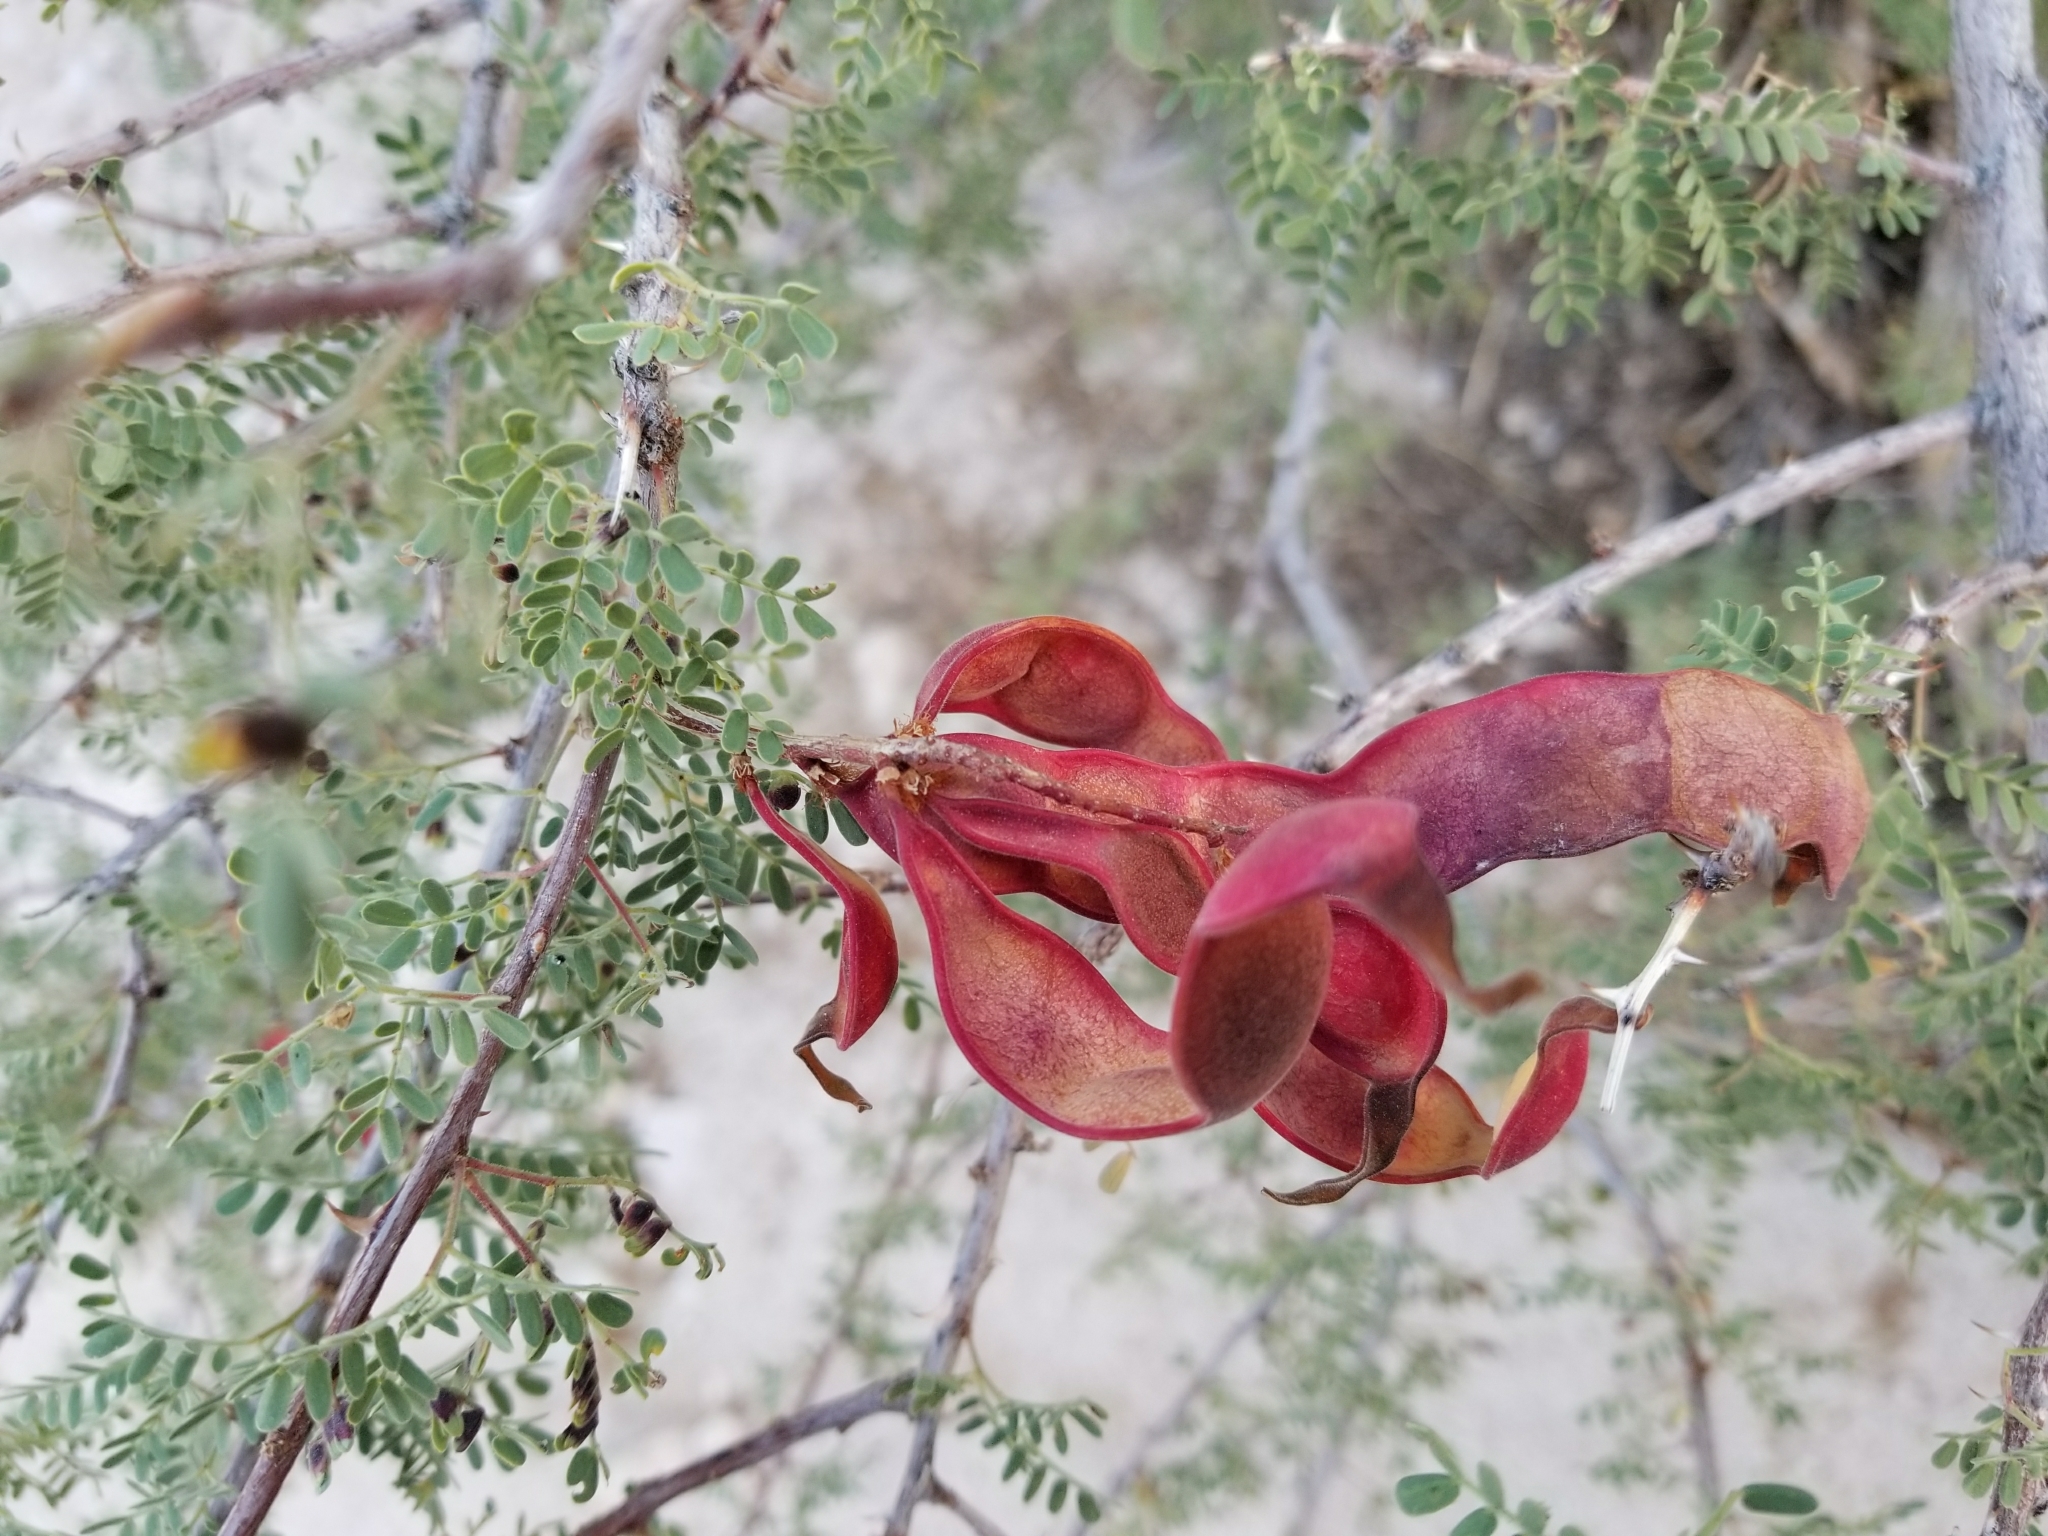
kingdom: Plantae
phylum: Tracheophyta
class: Magnoliopsida
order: Fabales
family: Fabaceae
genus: Senegalia
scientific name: Senegalia greggii
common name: Texas-mimosa
